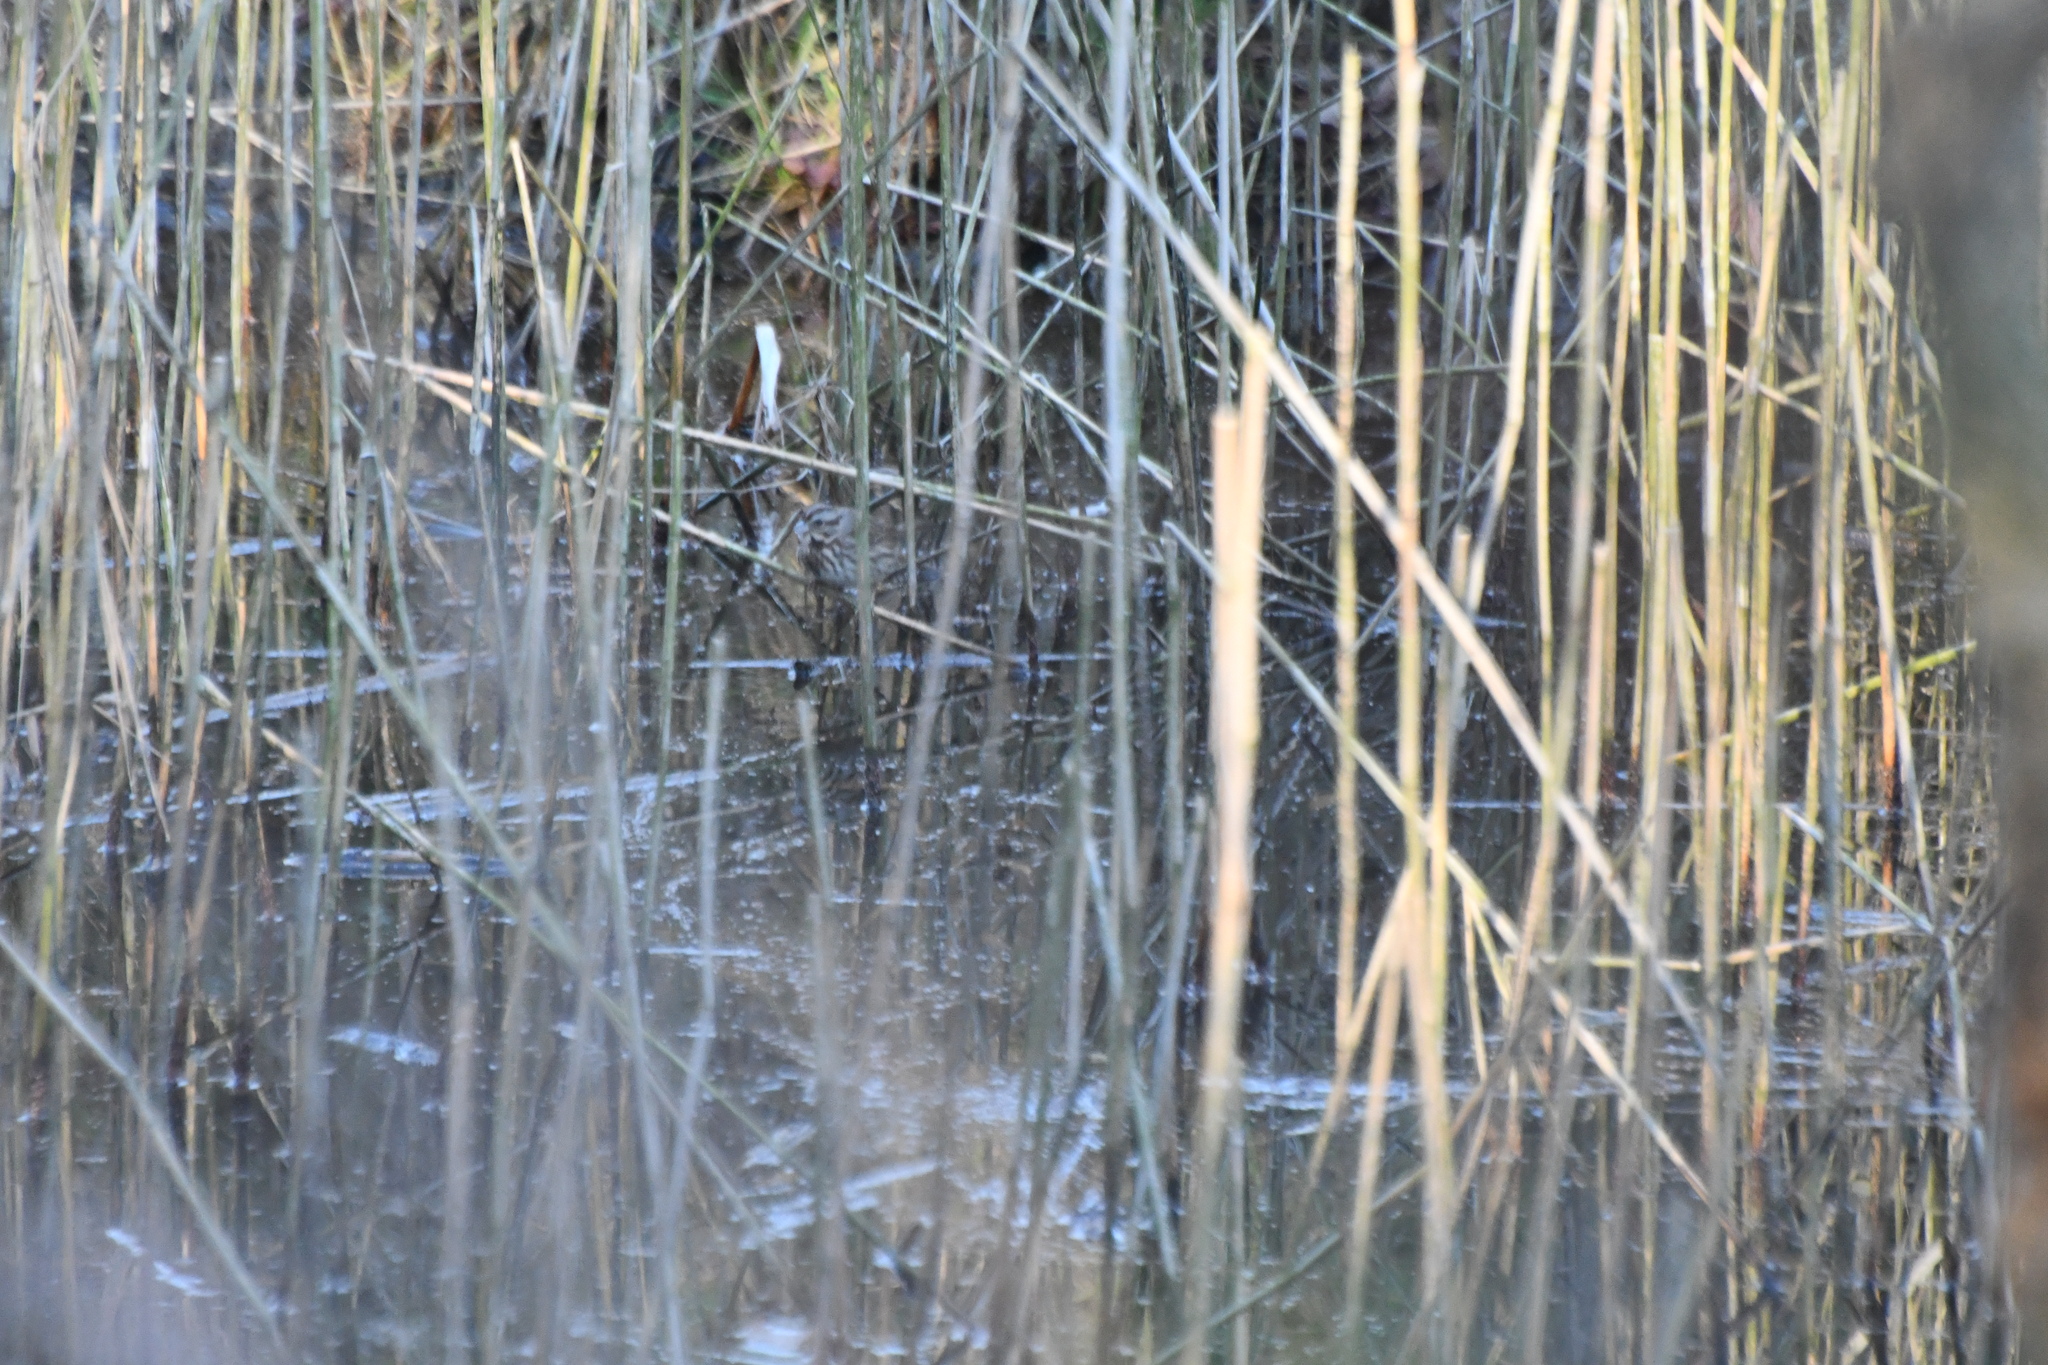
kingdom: Animalia
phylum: Chordata
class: Aves
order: Passeriformes
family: Passerellidae
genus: Melospiza
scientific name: Melospiza melodia
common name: Song sparrow
